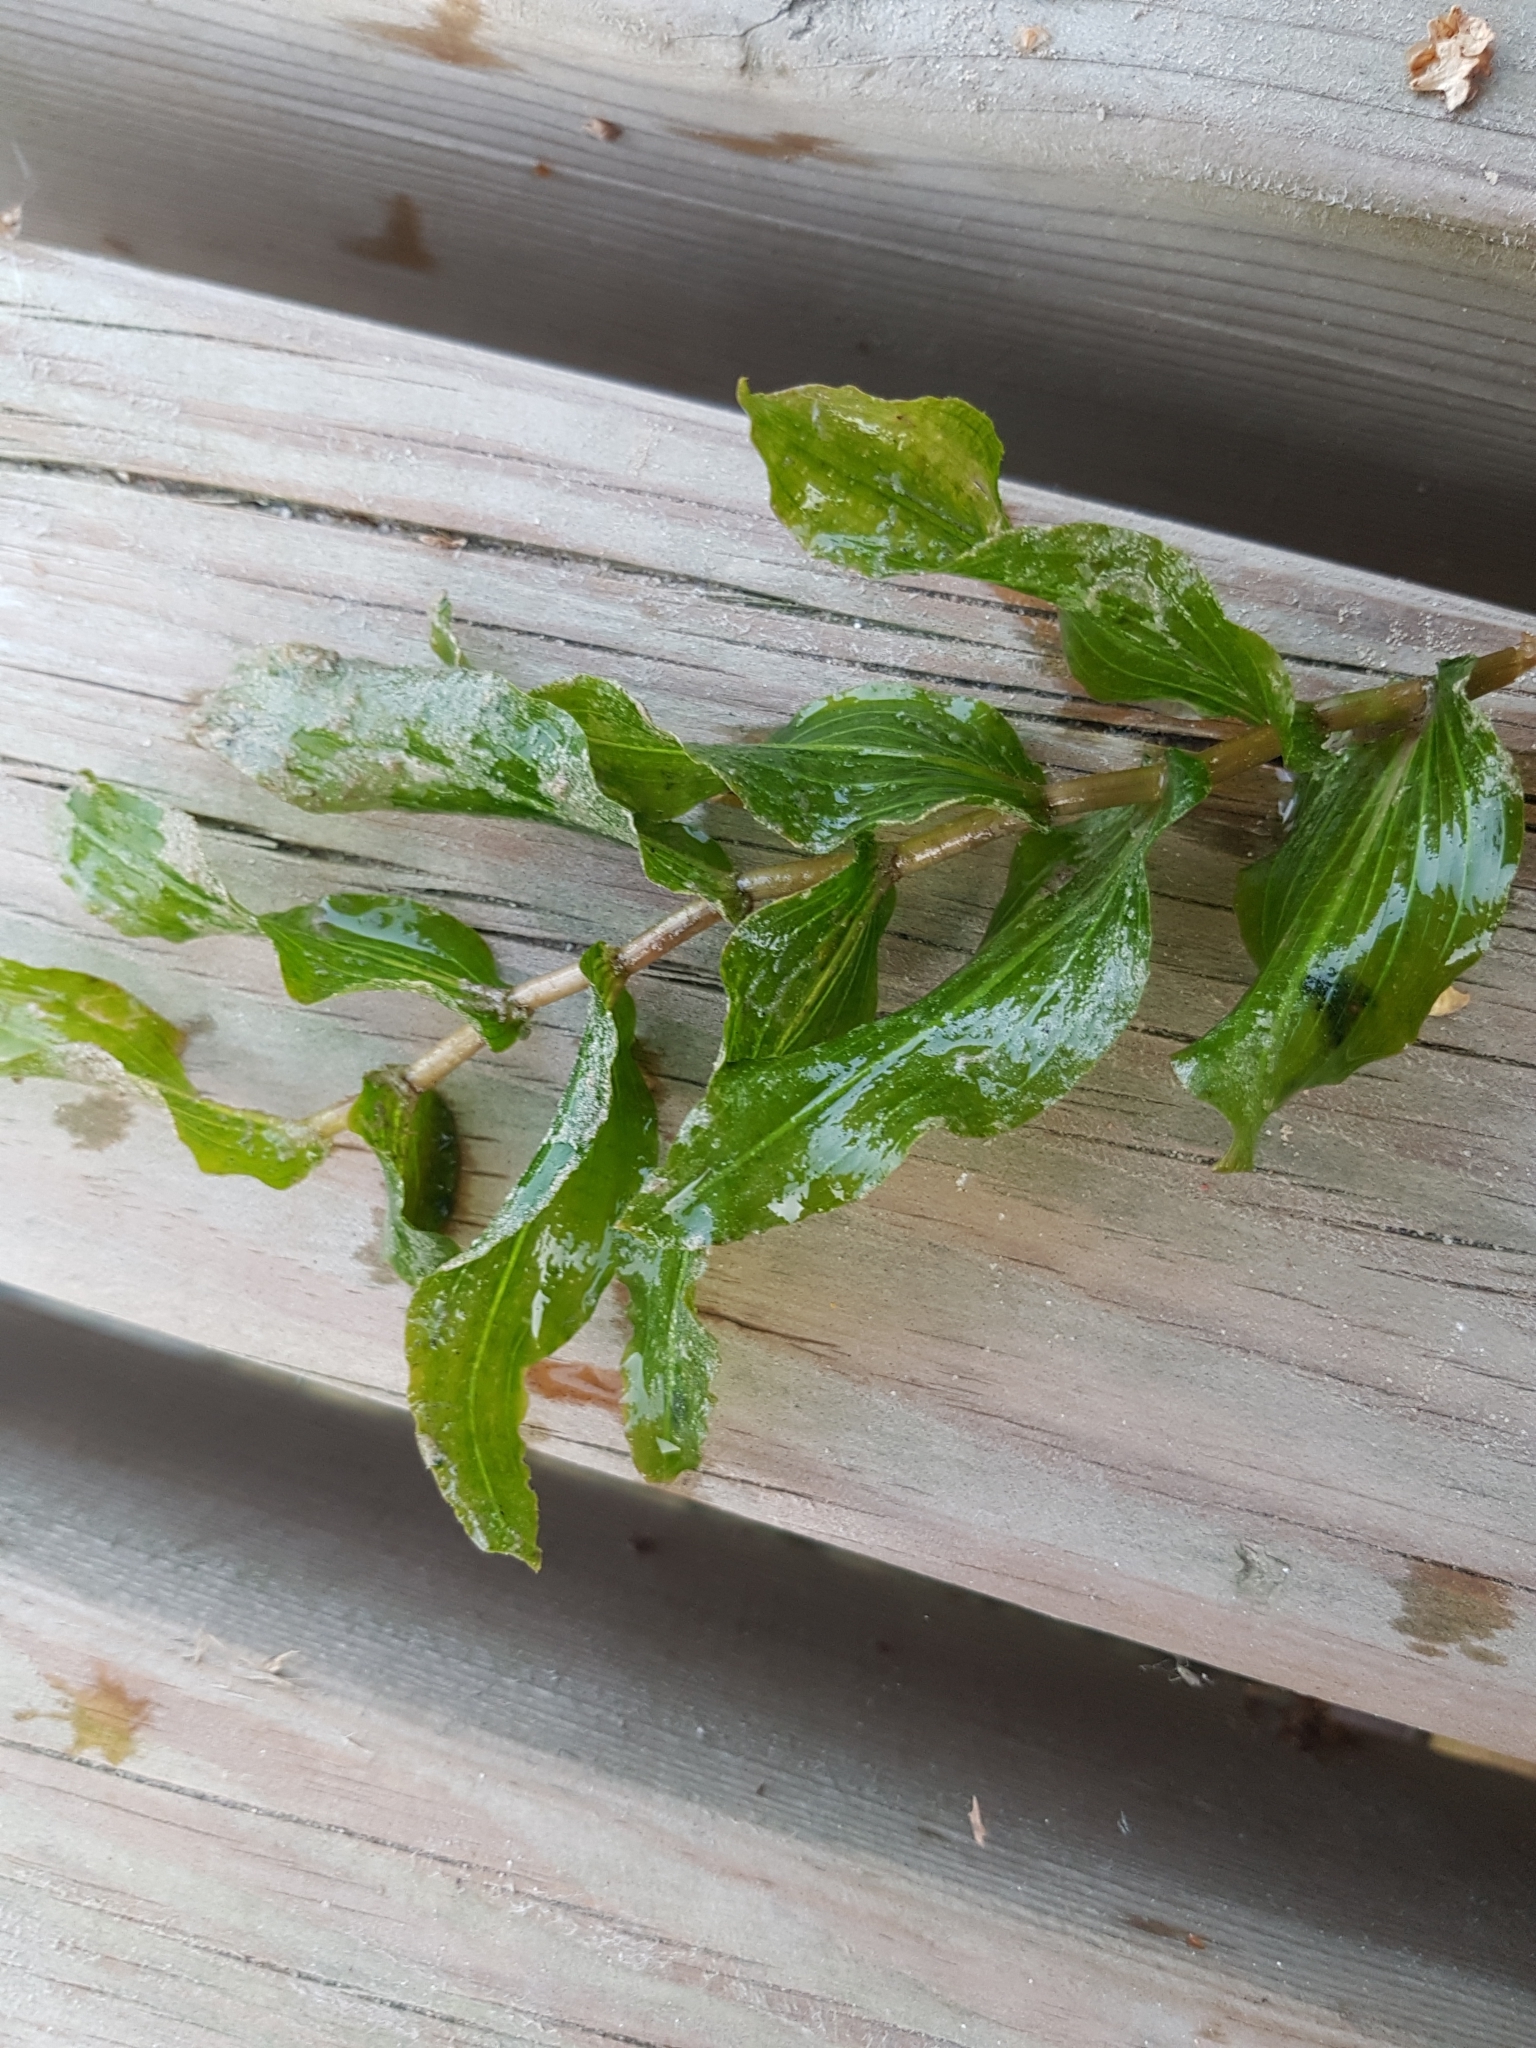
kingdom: Plantae
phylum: Tracheophyta
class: Liliopsida
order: Alismatales
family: Potamogetonaceae
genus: Potamogeton
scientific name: Potamogeton perfoliatus
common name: Perfoliate pondweed
